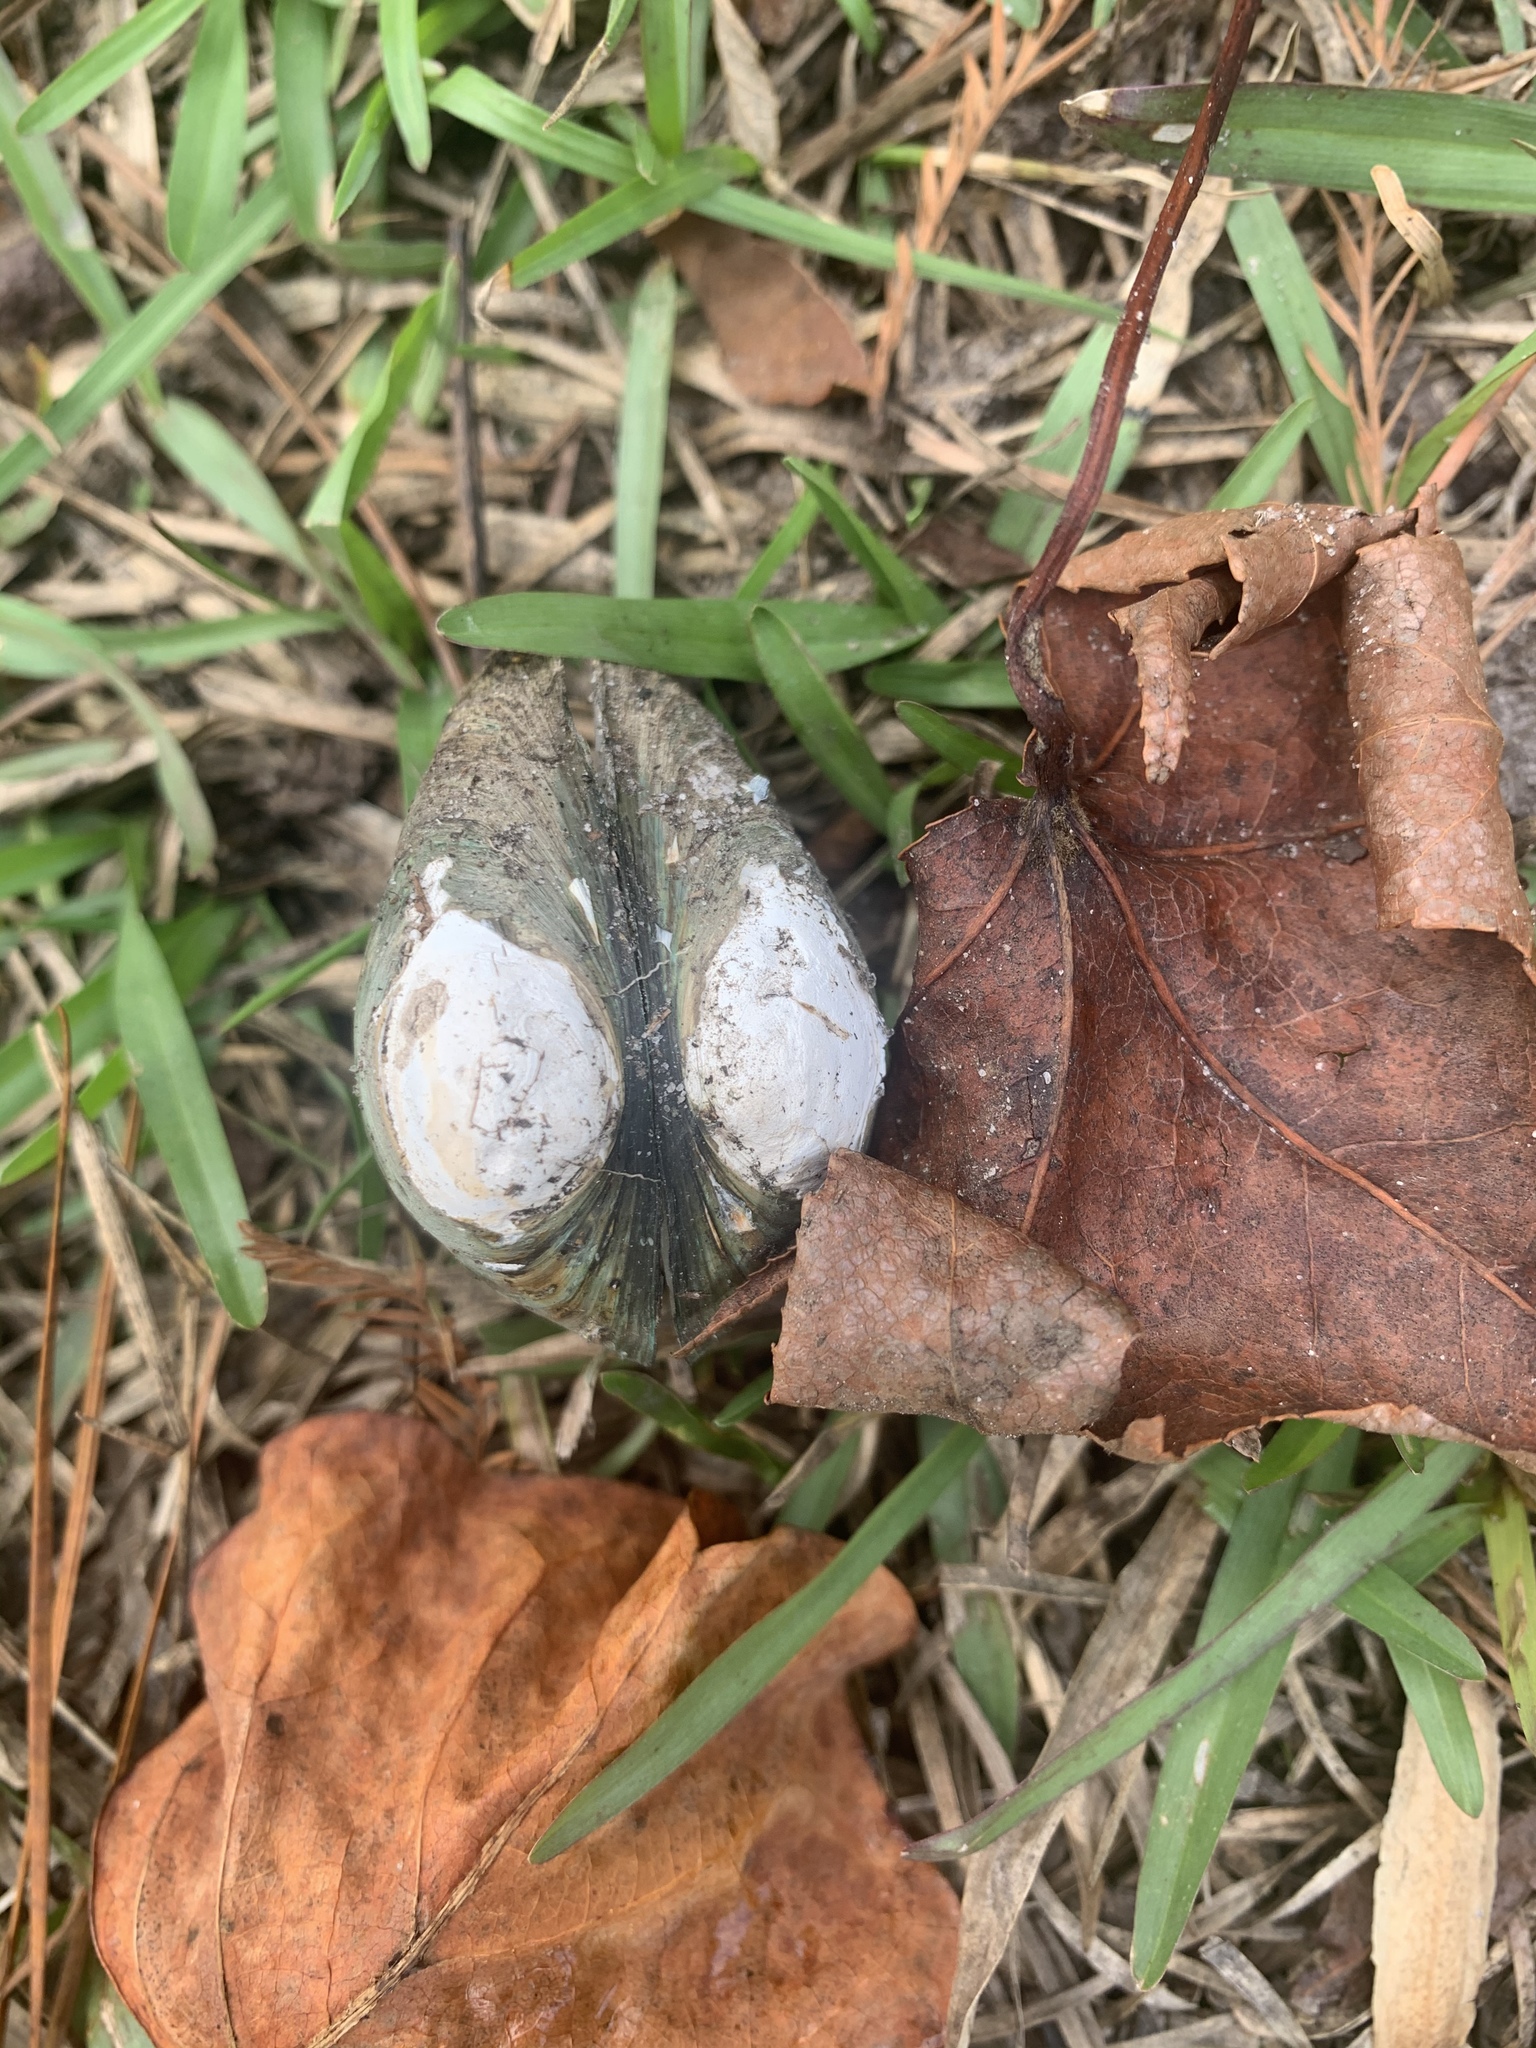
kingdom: Animalia
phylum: Mollusca
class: Bivalvia
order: Venerida
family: Mactridae
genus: Rangia
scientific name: Rangia cuneata
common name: Atlantic rangia
